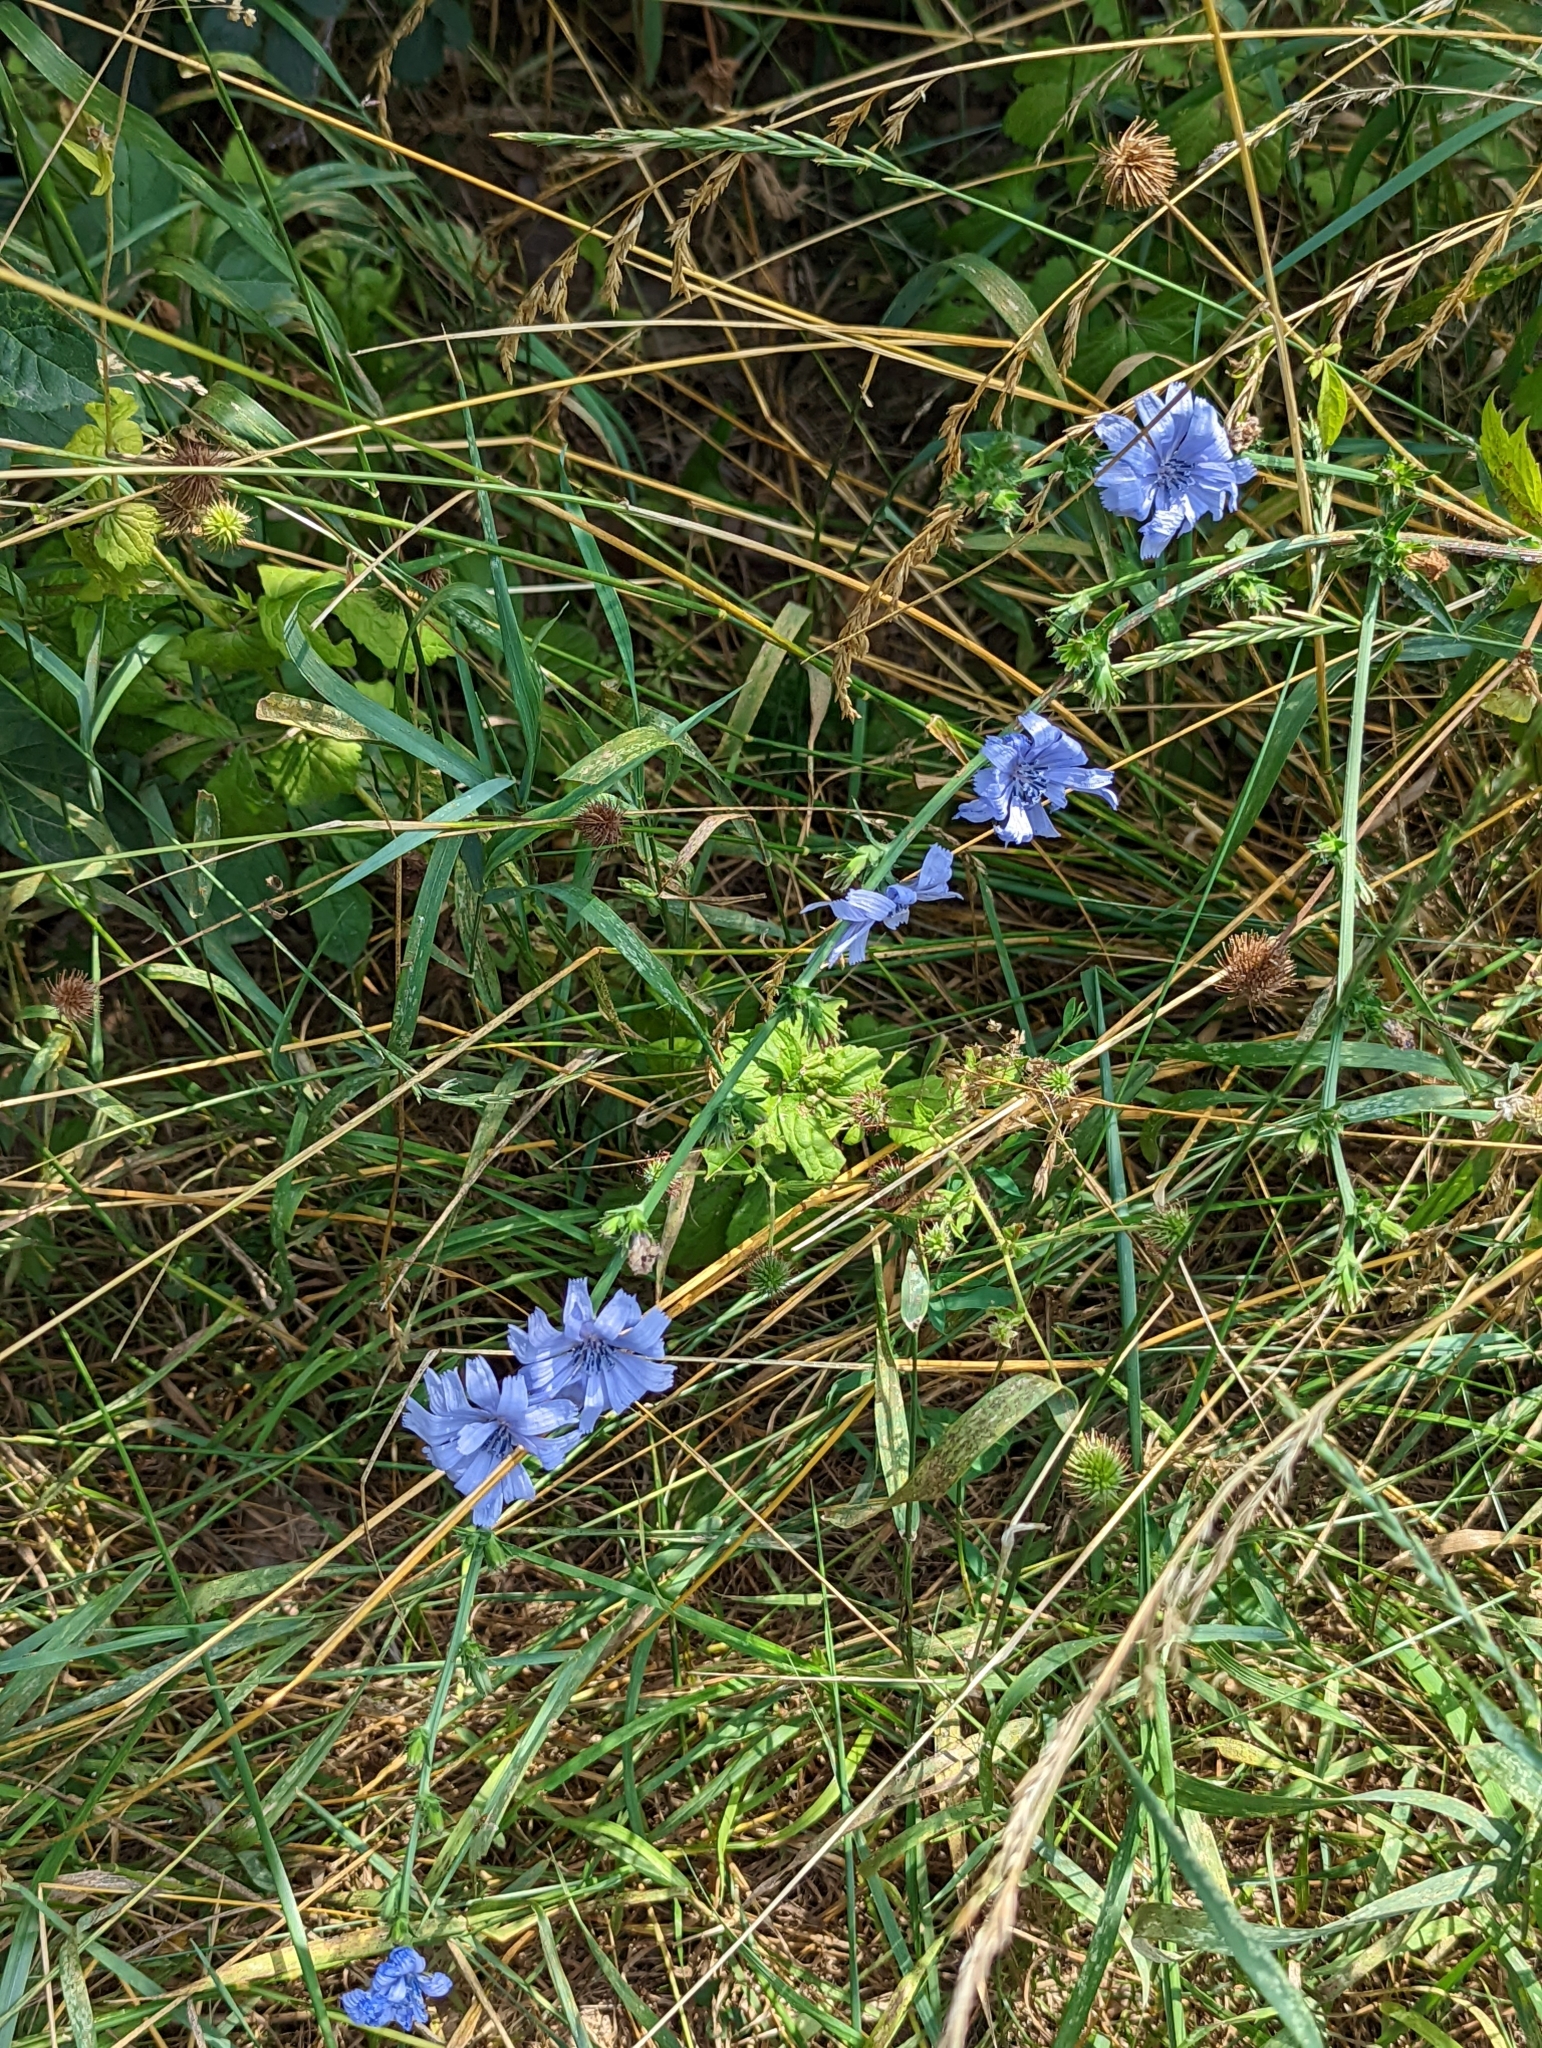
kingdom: Plantae
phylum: Tracheophyta
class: Magnoliopsida
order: Asterales
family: Asteraceae
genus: Cichorium
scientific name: Cichorium intybus
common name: Chicory
